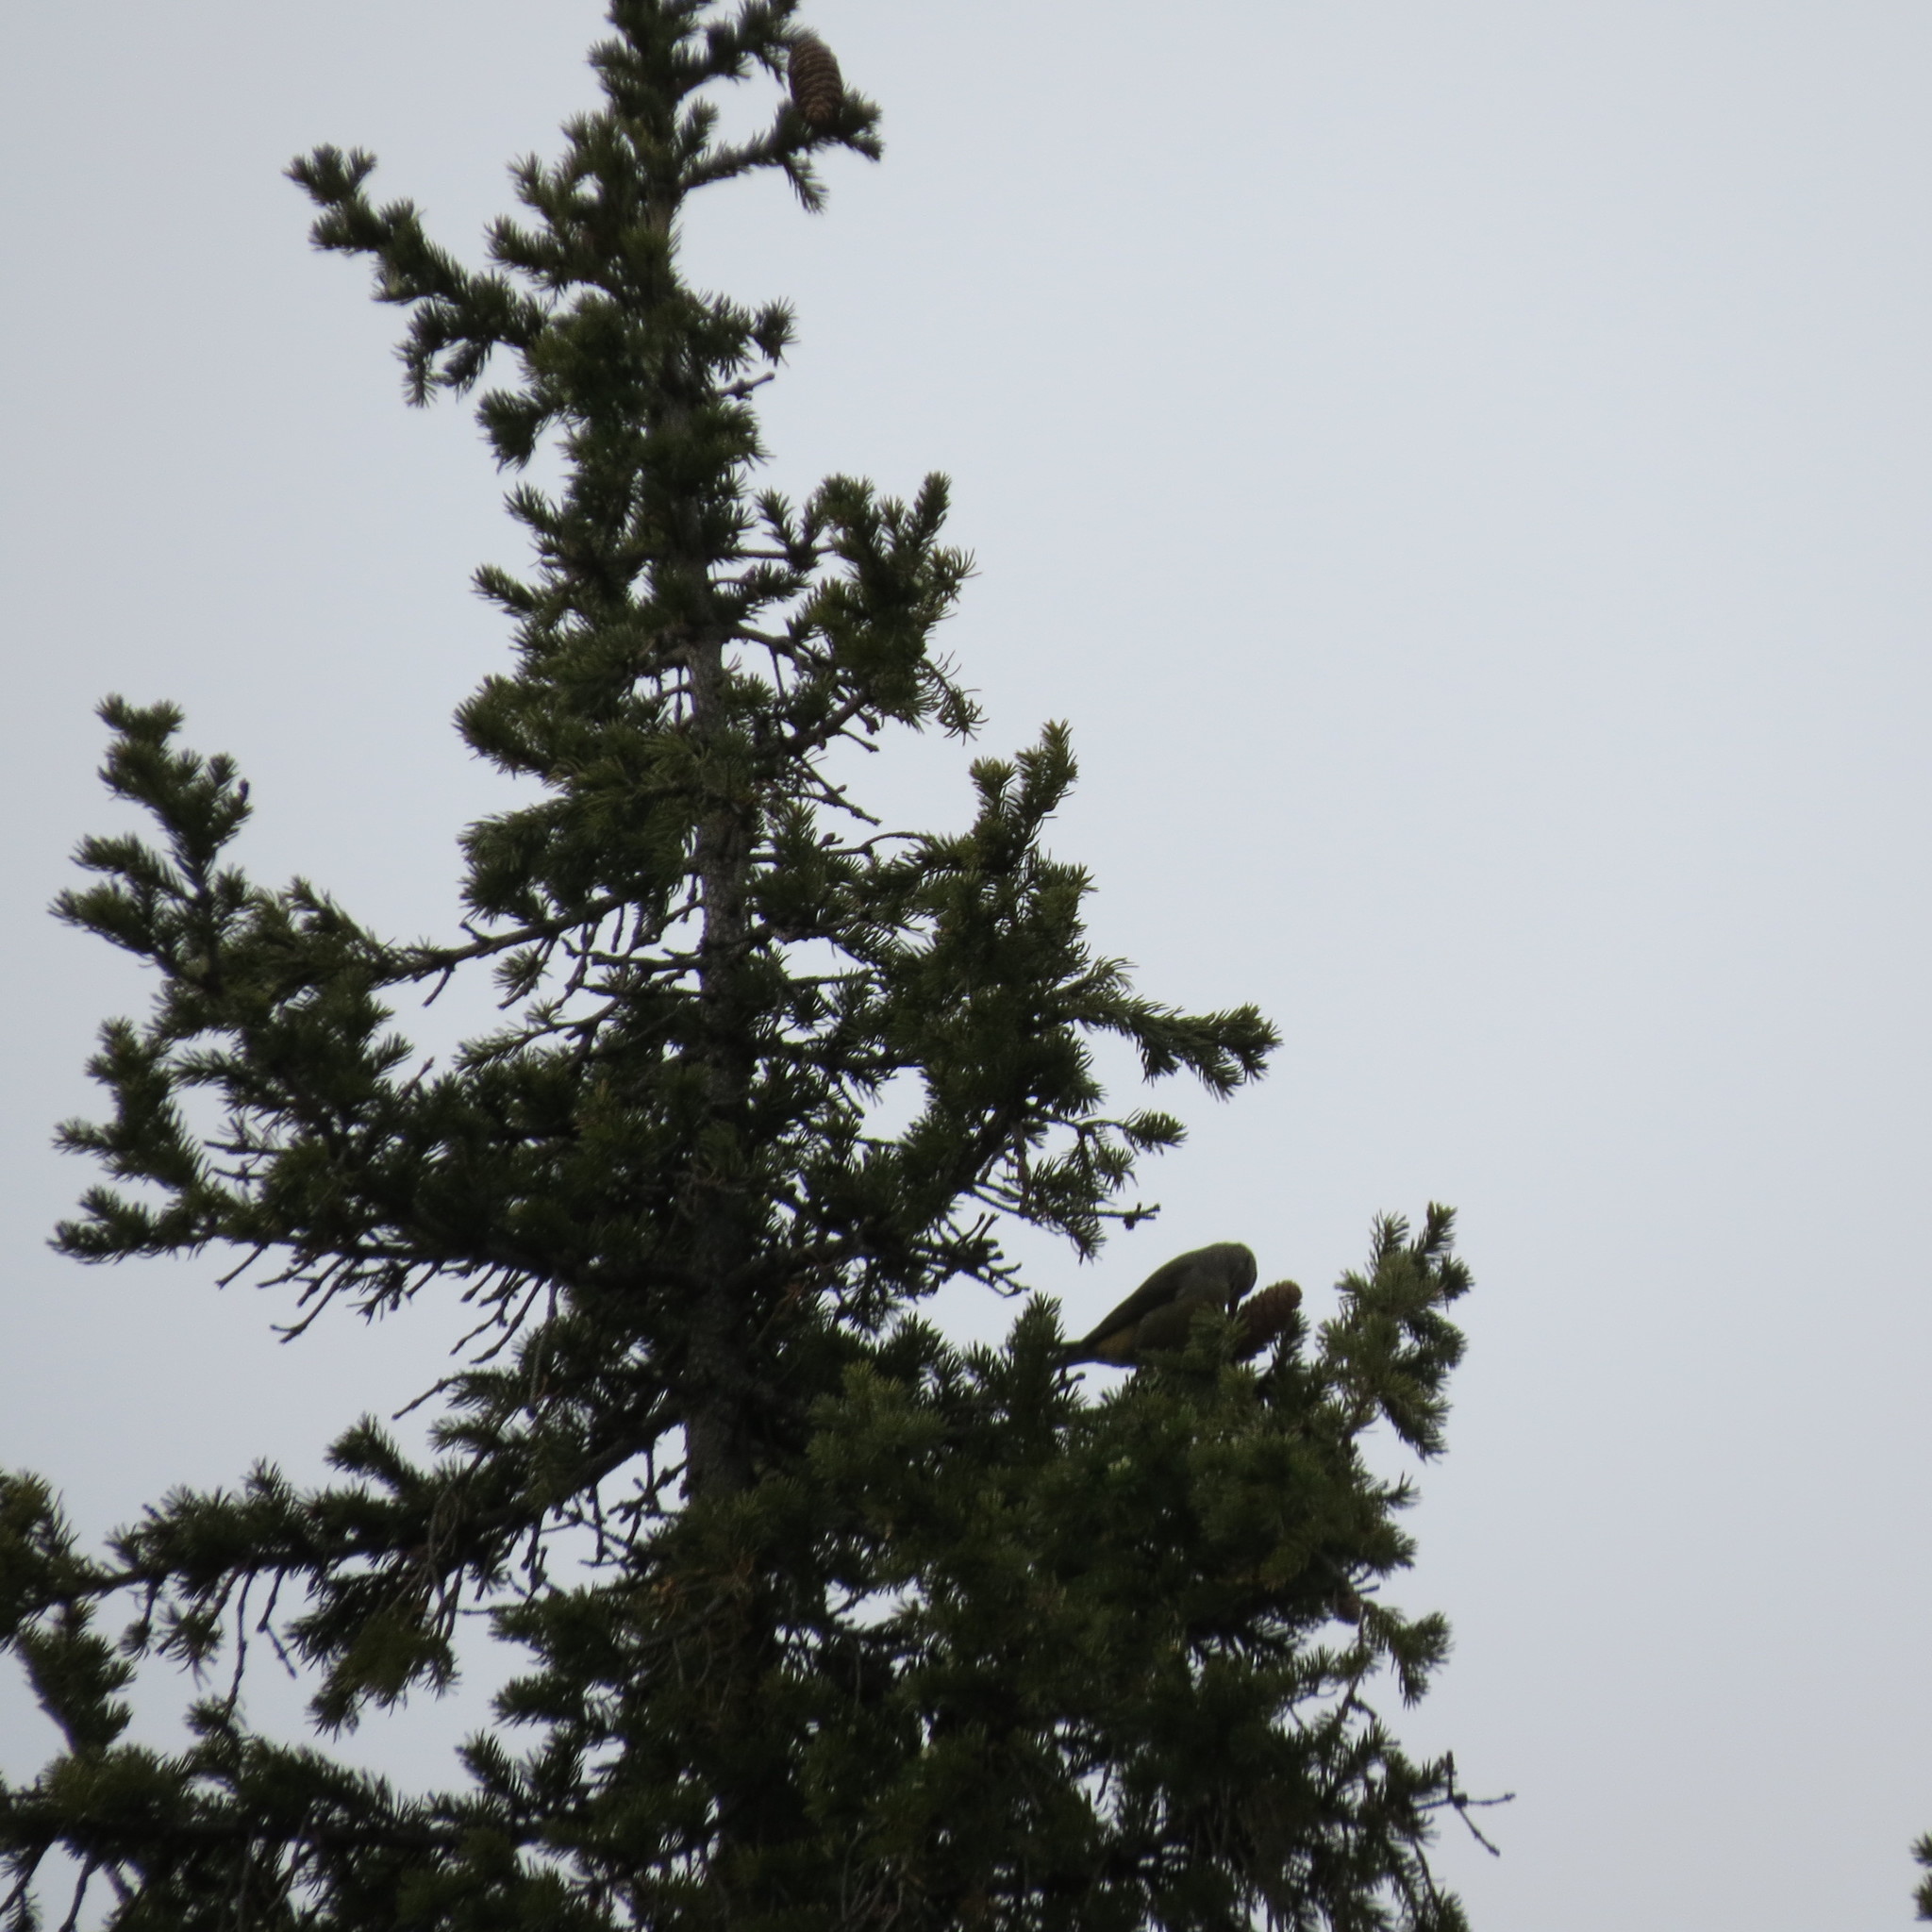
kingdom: Animalia
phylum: Chordata
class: Aves
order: Passeriformes
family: Fringillidae
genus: Loxia
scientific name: Loxia curvirostra
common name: Red crossbill
